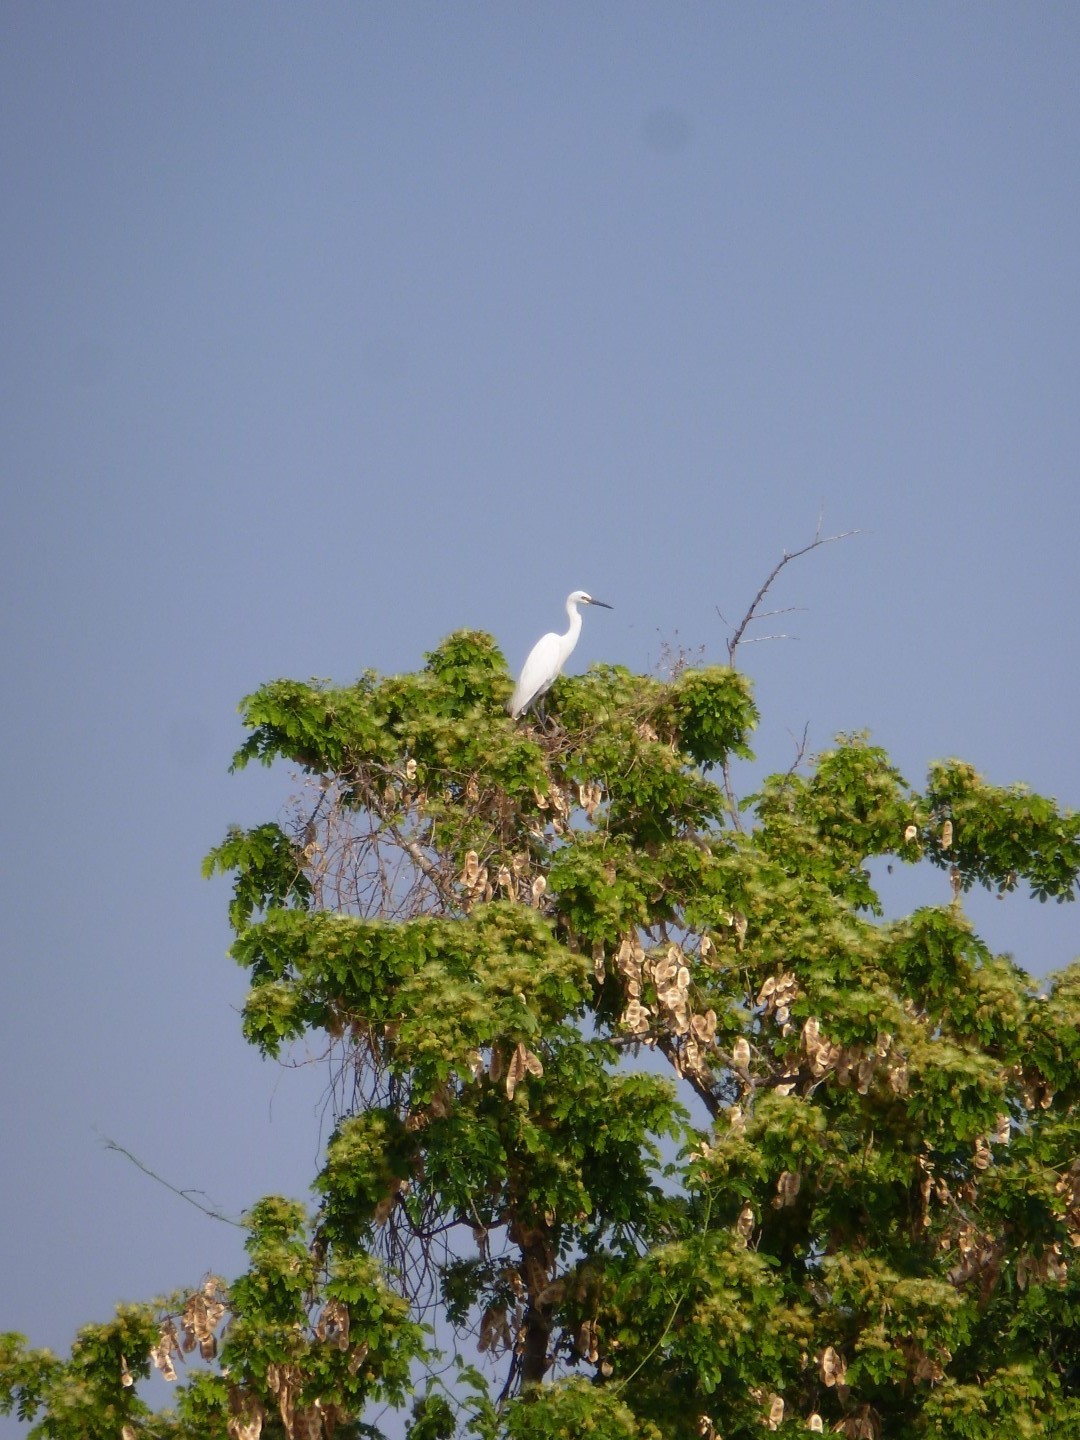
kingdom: Animalia
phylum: Chordata
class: Aves
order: Pelecaniformes
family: Ardeidae
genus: Egretta
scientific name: Egretta dimorpha
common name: Dimorphic egret
